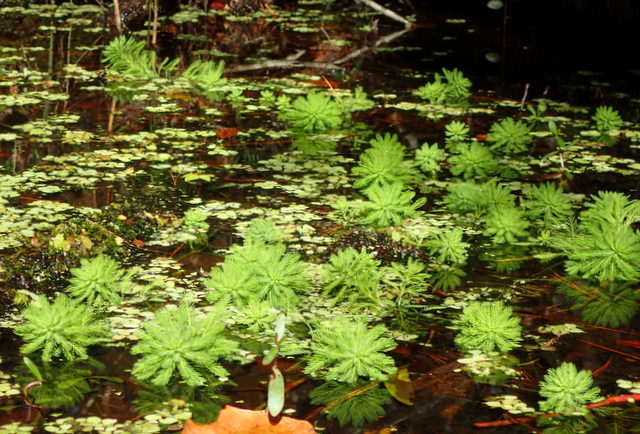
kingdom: Plantae
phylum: Tracheophyta
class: Magnoliopsida
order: Saxifragales
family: Haloragaceae
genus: Myriophyllum
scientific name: Myriophyllum aquaticum
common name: Parrot's feather
